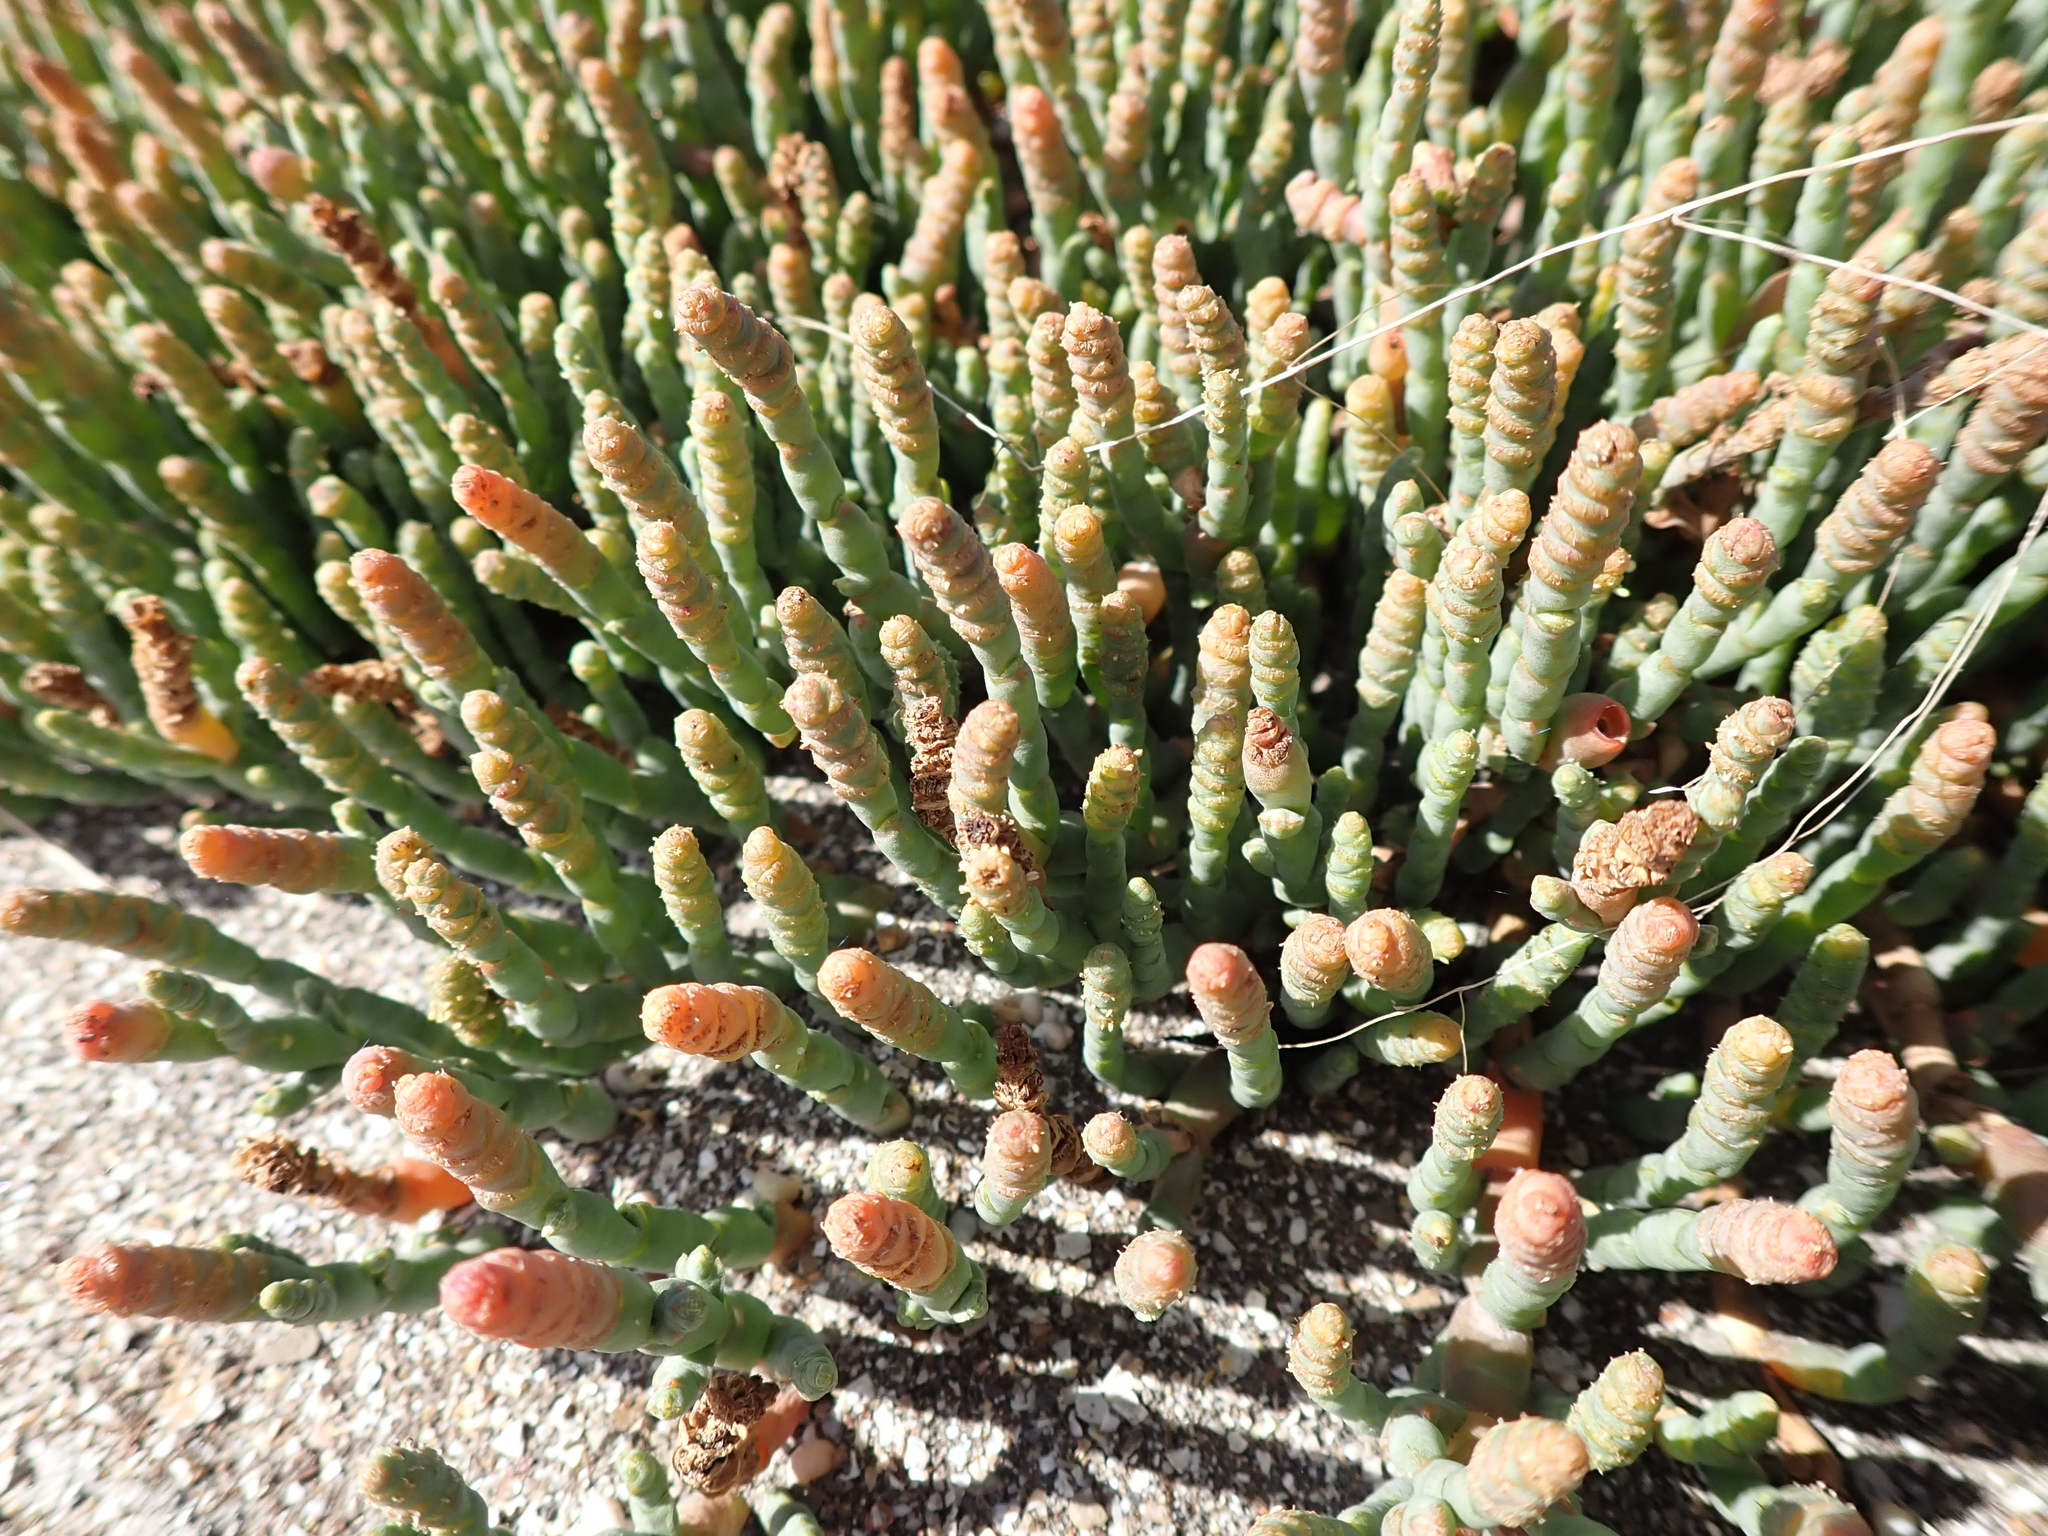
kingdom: Plantae
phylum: Tracheophyta
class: Magnoliopsida
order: Caryophyllales
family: Amaranthaceae
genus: Salicornia
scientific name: Salicornia quinqueflora
